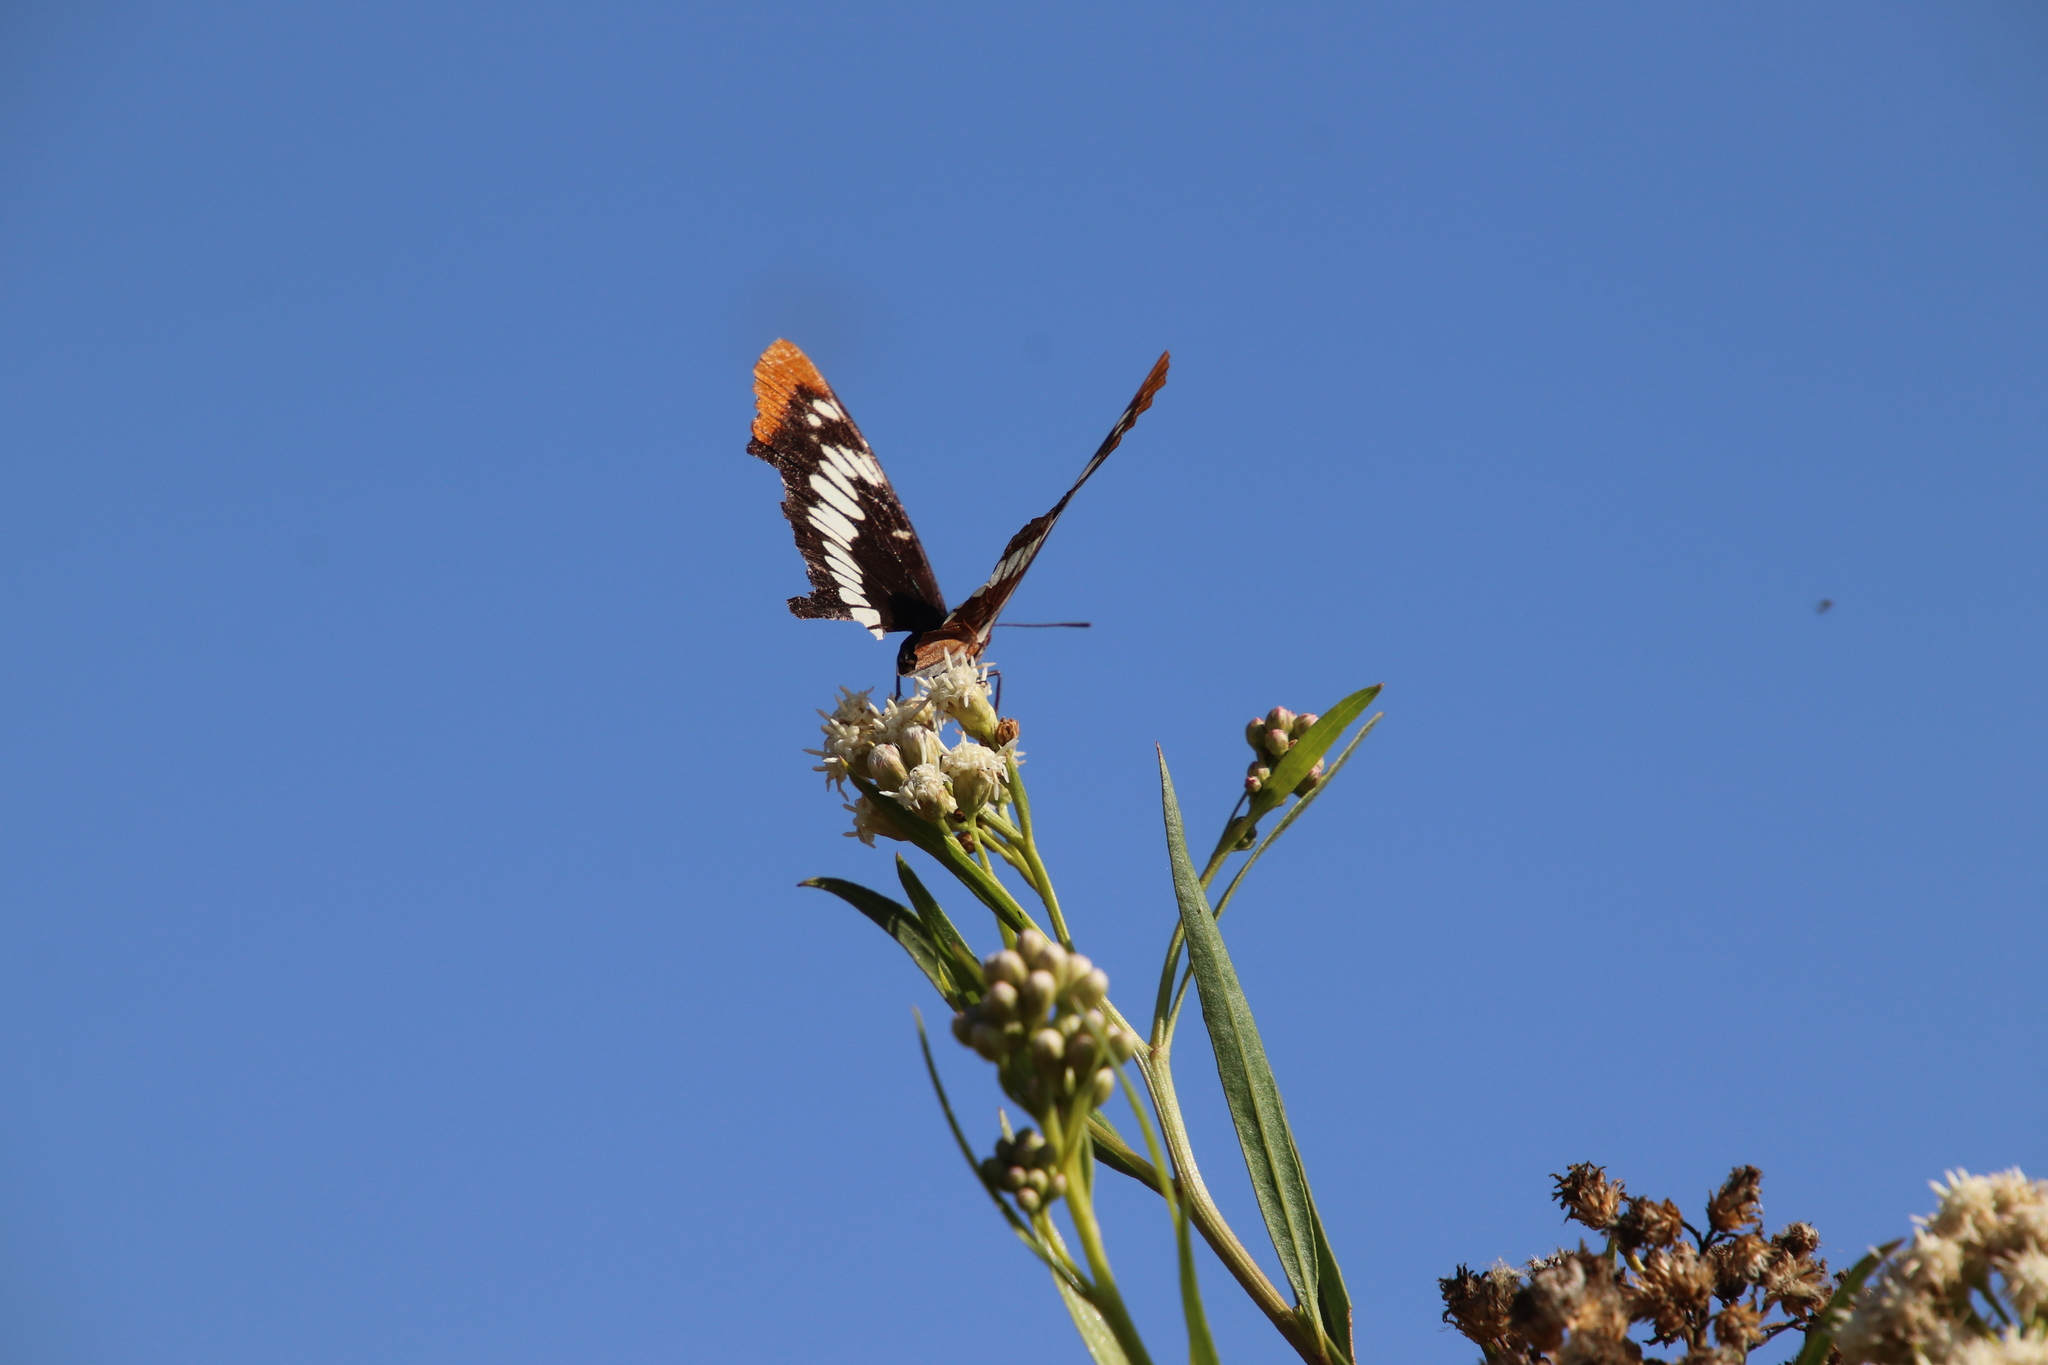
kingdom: Animalia
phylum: Arthropoda
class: Insecta
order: Lepidoptera
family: Nymphalidae
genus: Limenitis
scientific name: Limenitis lorquini
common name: Lorquin's admiral
